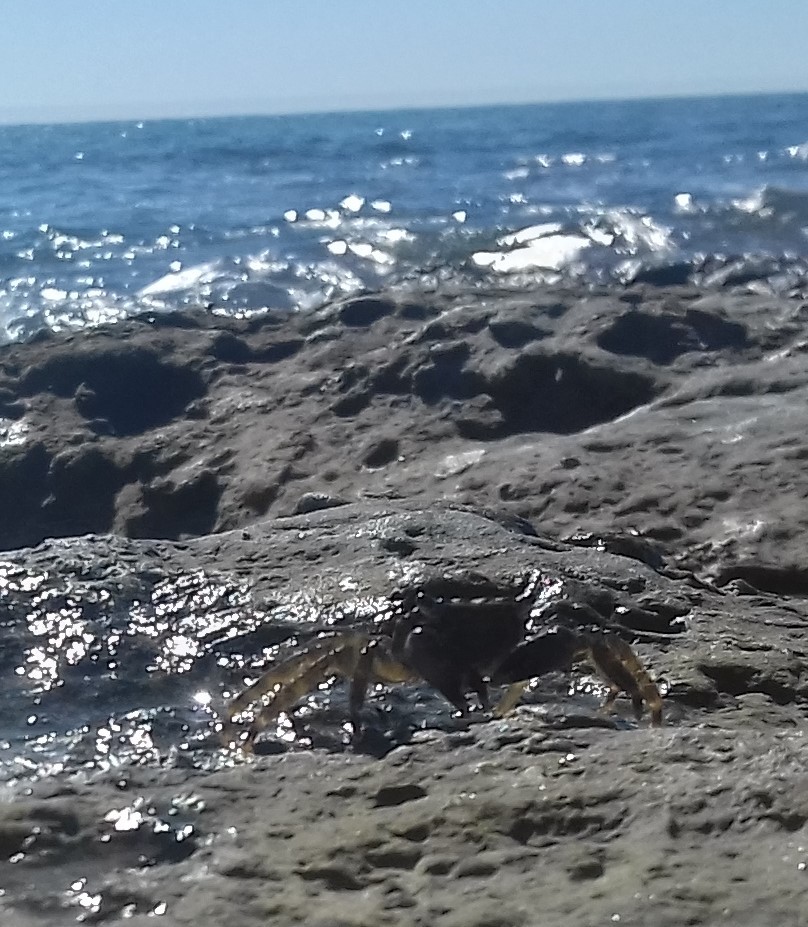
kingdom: Animalia
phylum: Arthropoda
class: Malacostraca
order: Decapoda
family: Grapsidae
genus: Pachygrapsus
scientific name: Pachygrapsus marmoratus
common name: Marbled rock crab
